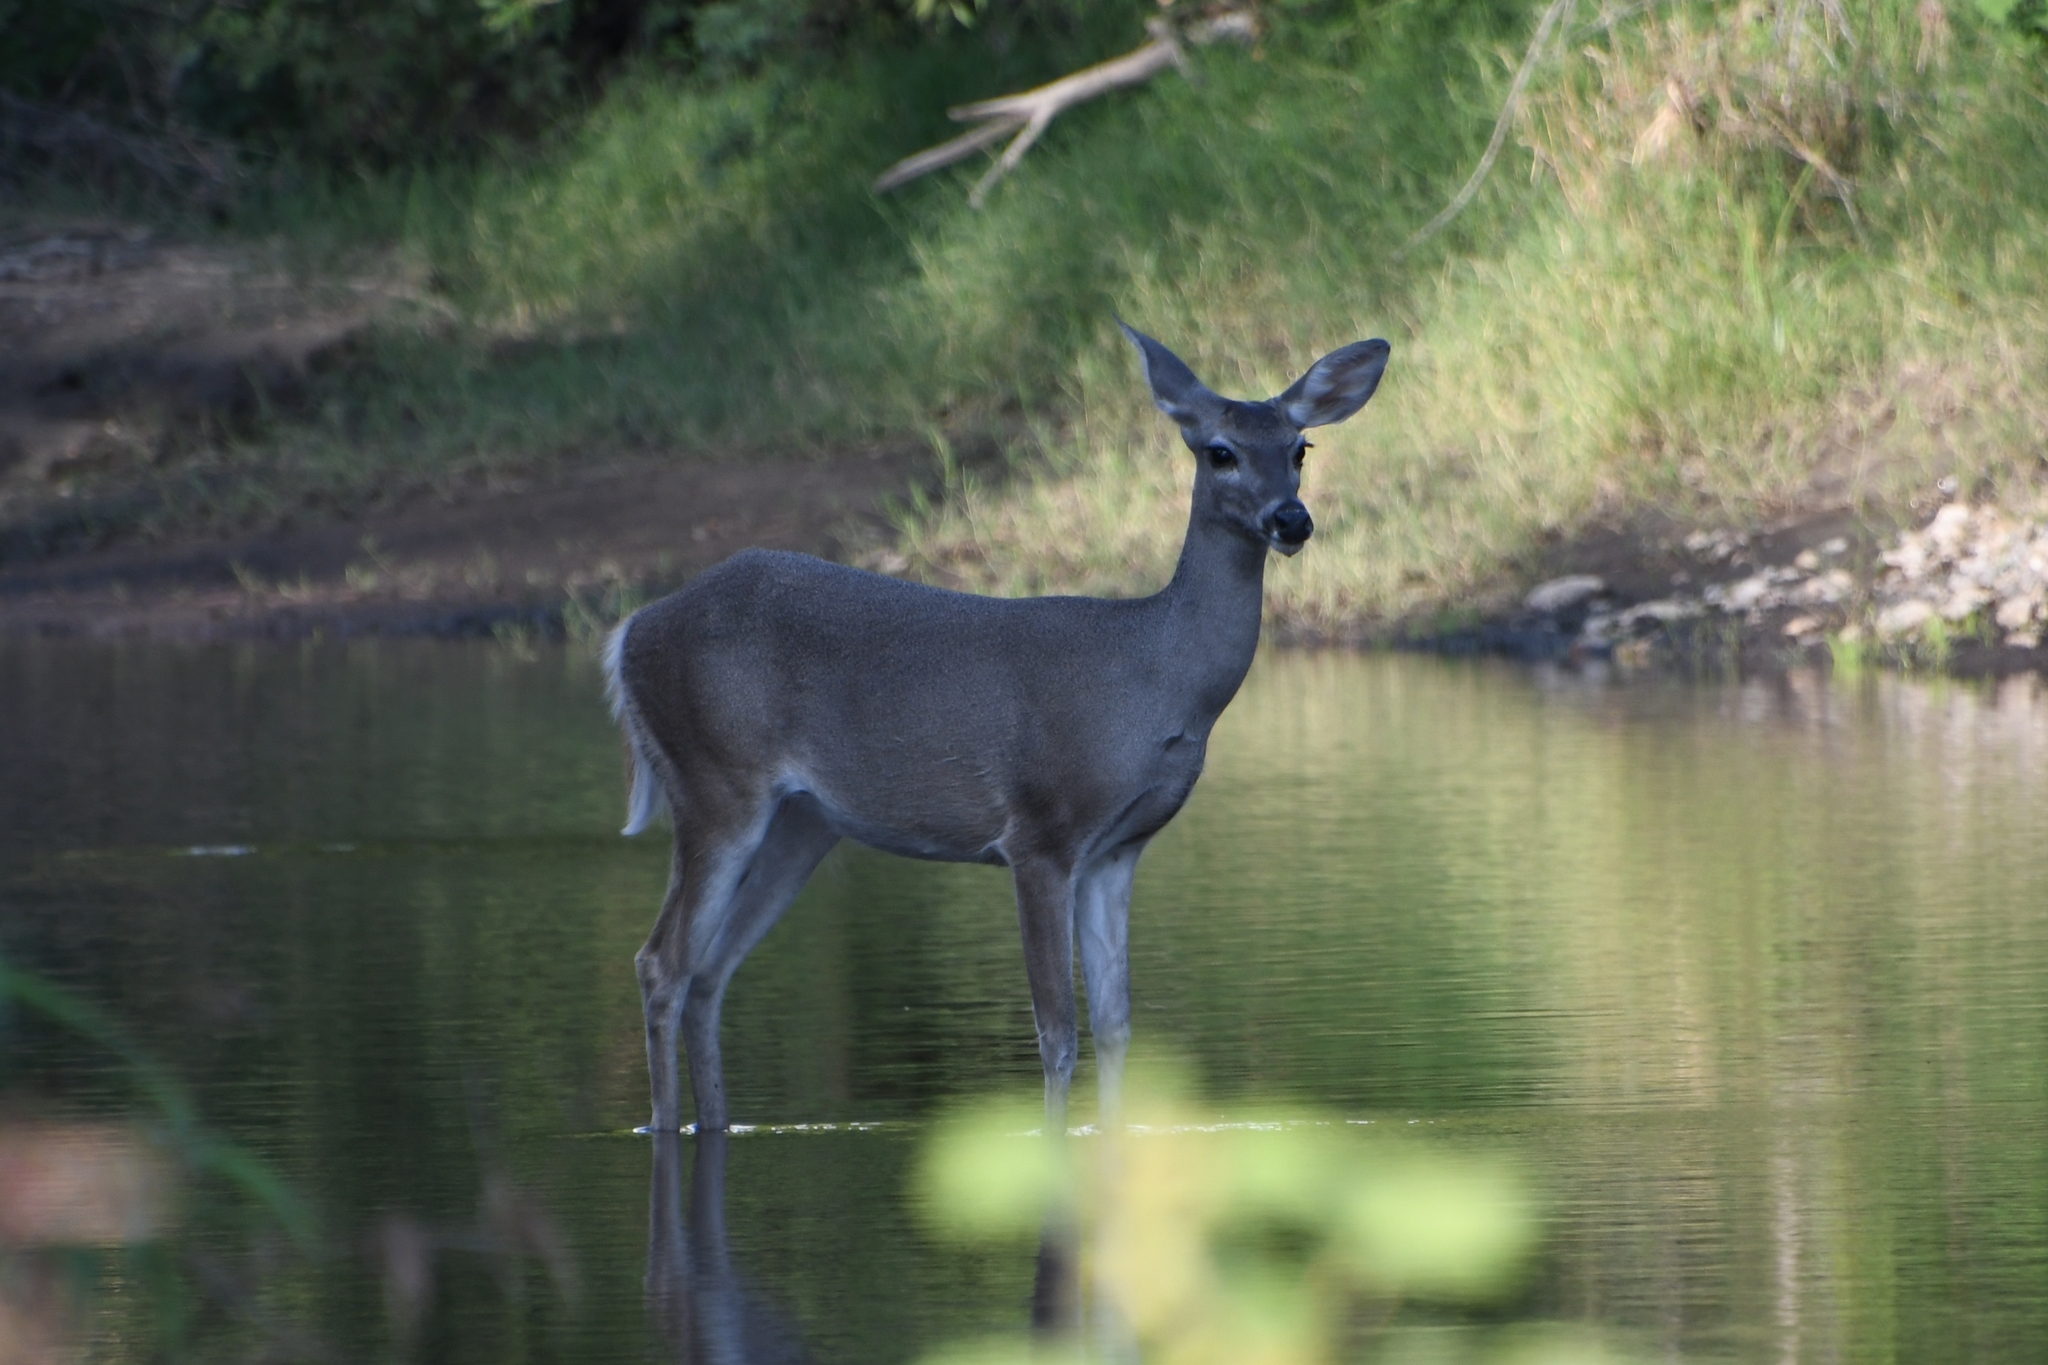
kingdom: Animalia
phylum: Chordata
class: Mammalia
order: Artiodactyla
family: Cervidae
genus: Odocoileus
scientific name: Odocoileus virginianus
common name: White-tailed deer
